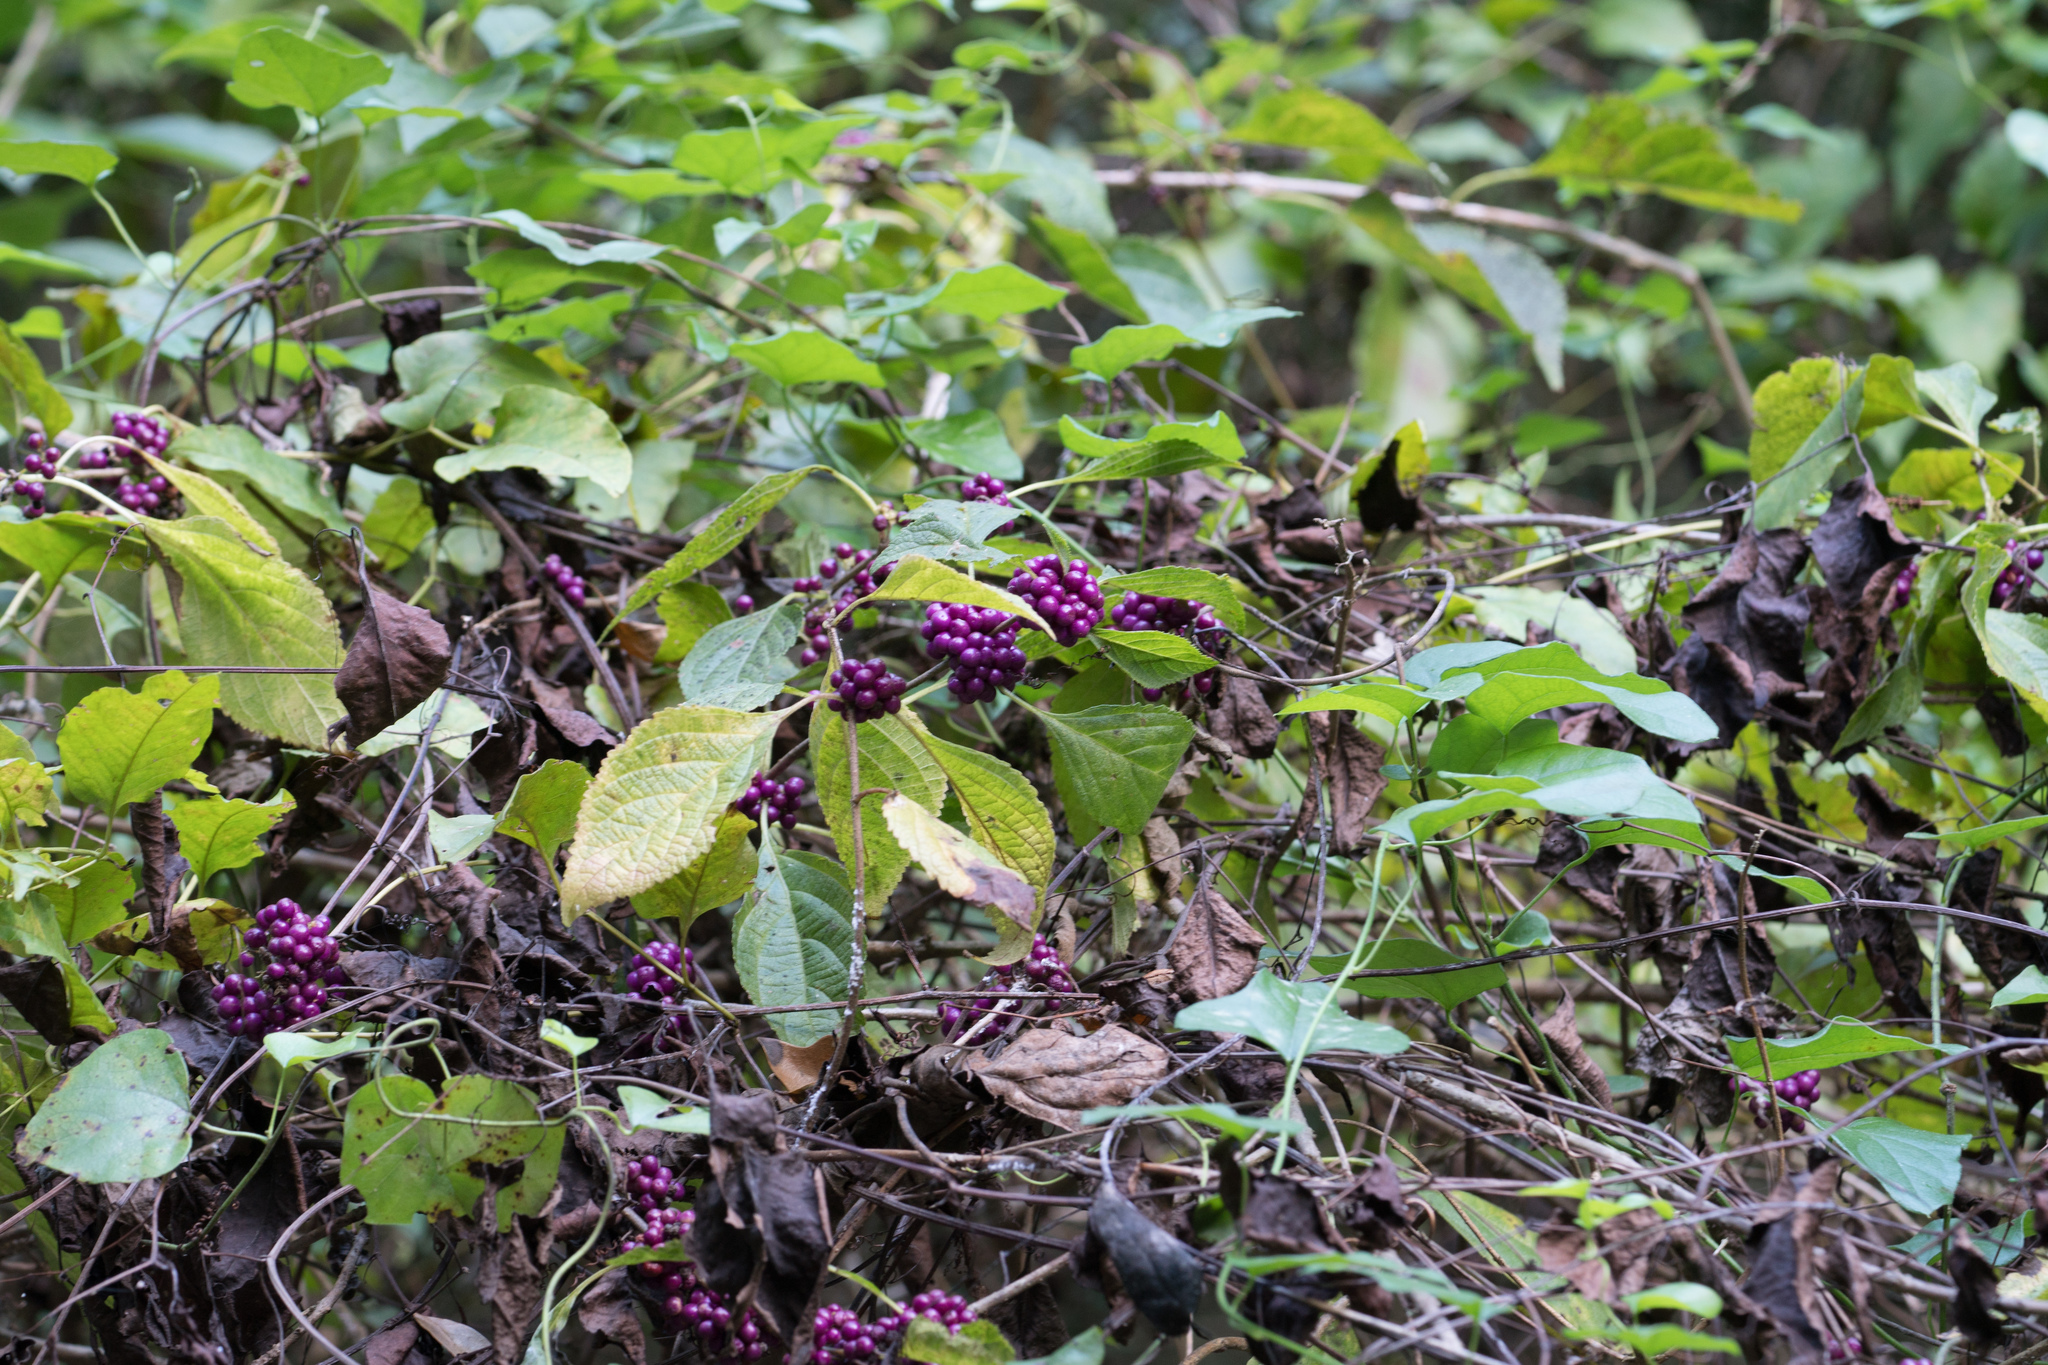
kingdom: Plantae
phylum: Tracheophyta
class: Magnoliopsida
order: Lamiales
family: Lamiaceae
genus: Callicarpa
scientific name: Callicarpa americana
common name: American beautyberry
